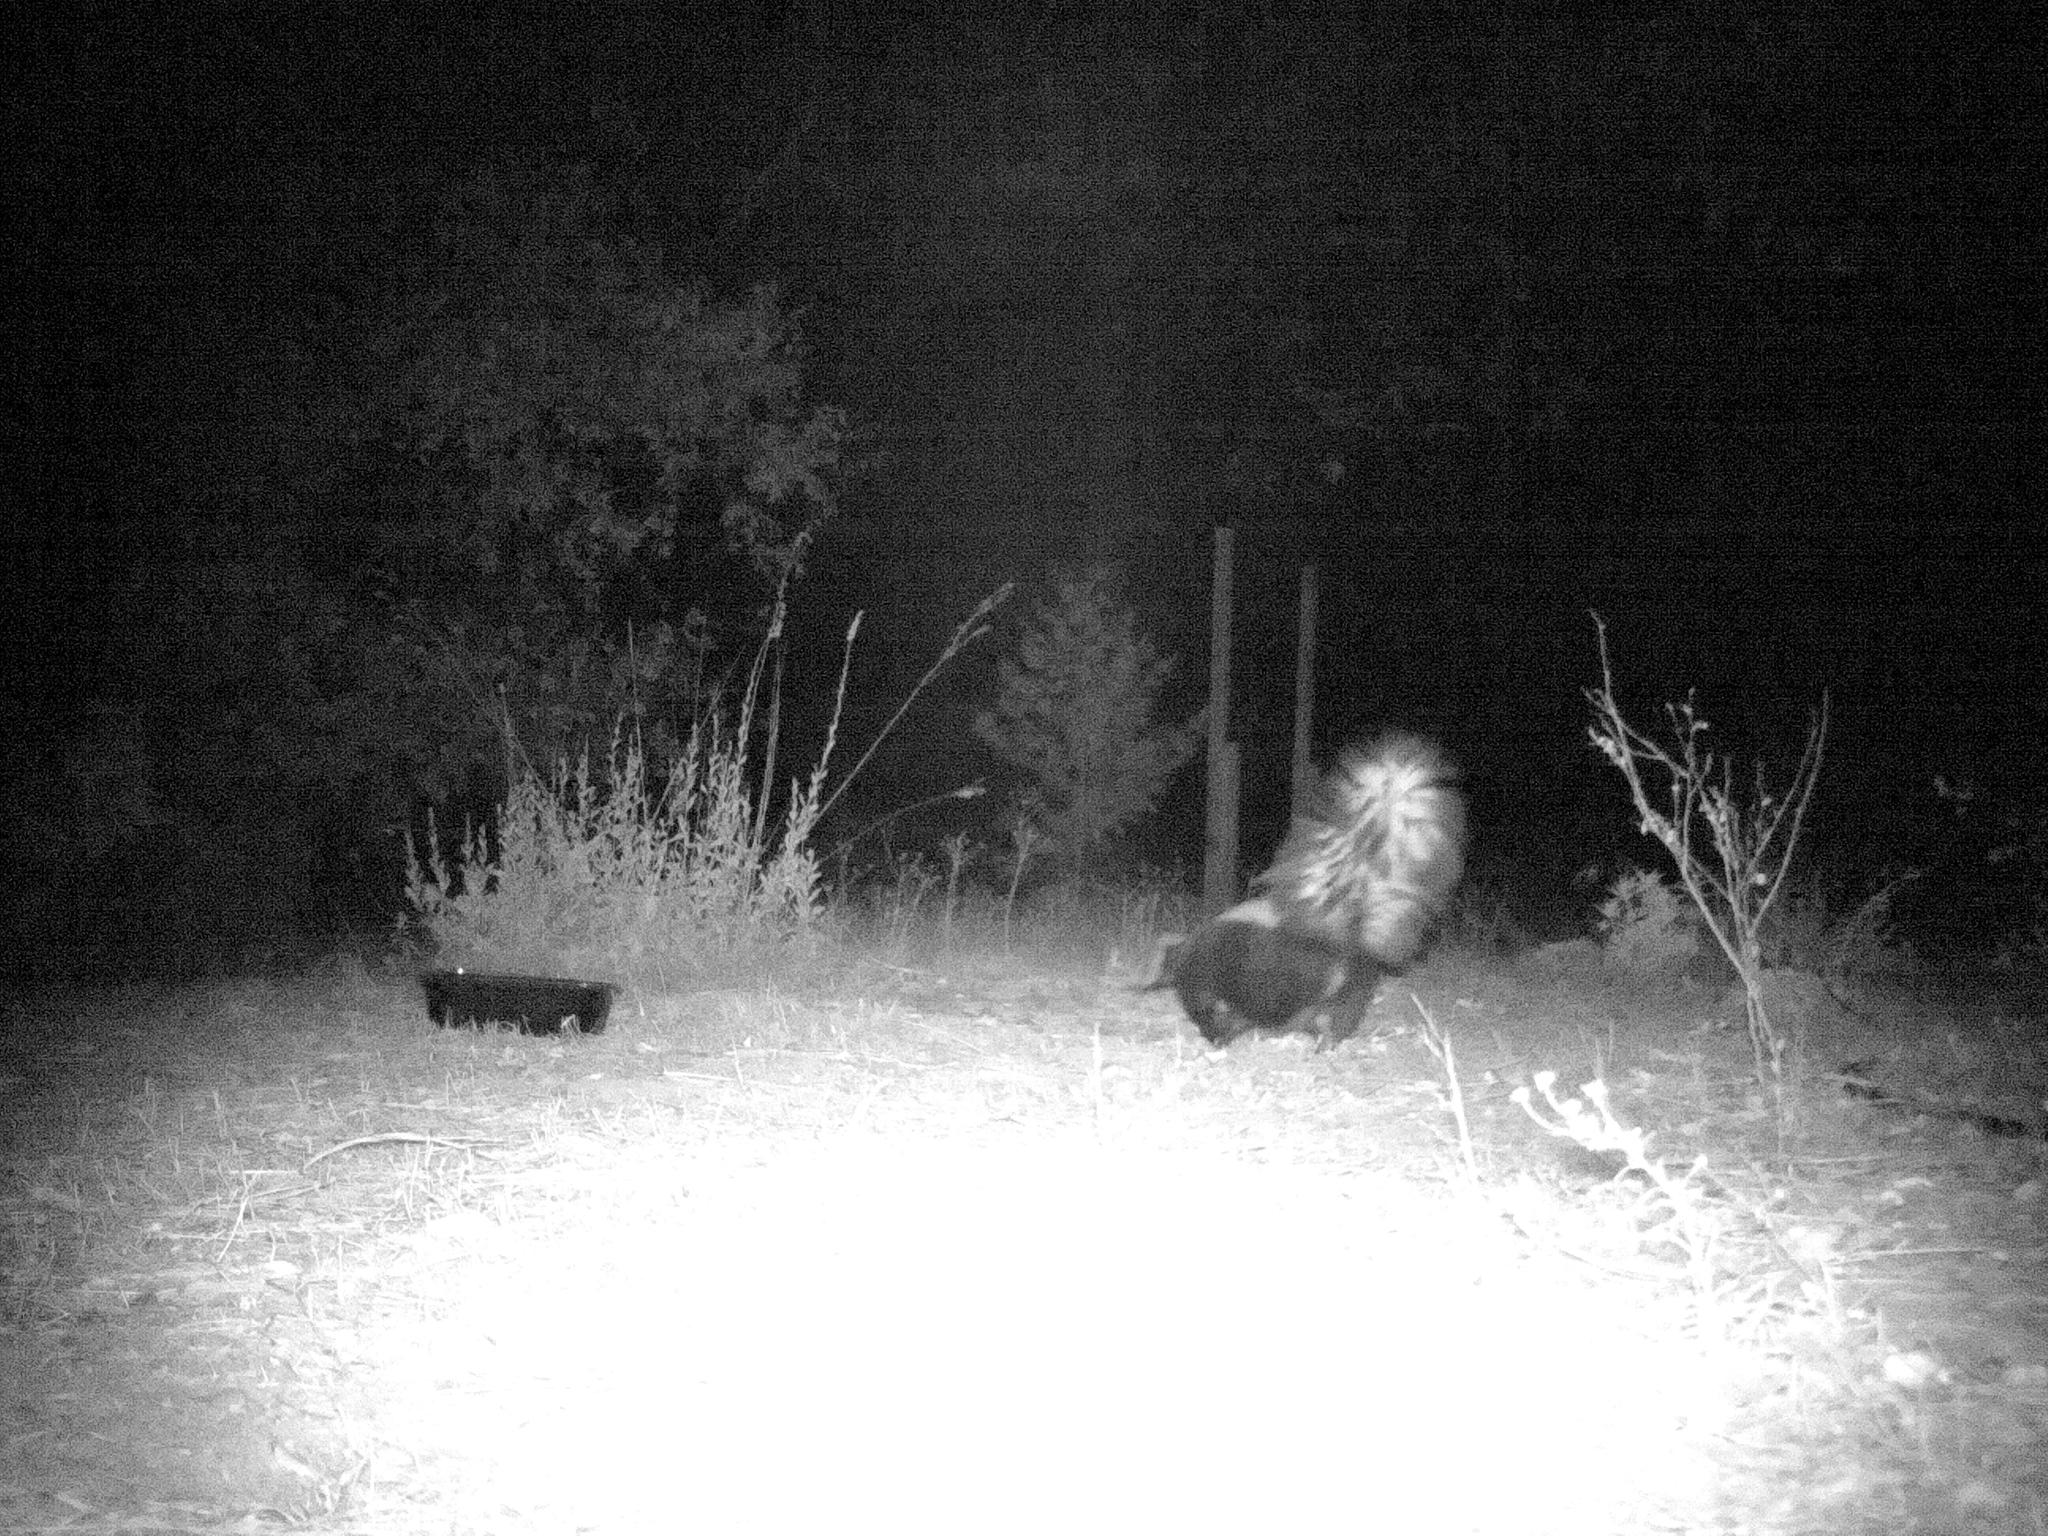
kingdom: Animalia
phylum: Chordata
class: Mammalia
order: Carnivora
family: Mephitidae
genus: Mephitis
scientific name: Mephitis mephitis
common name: Striped skunk
